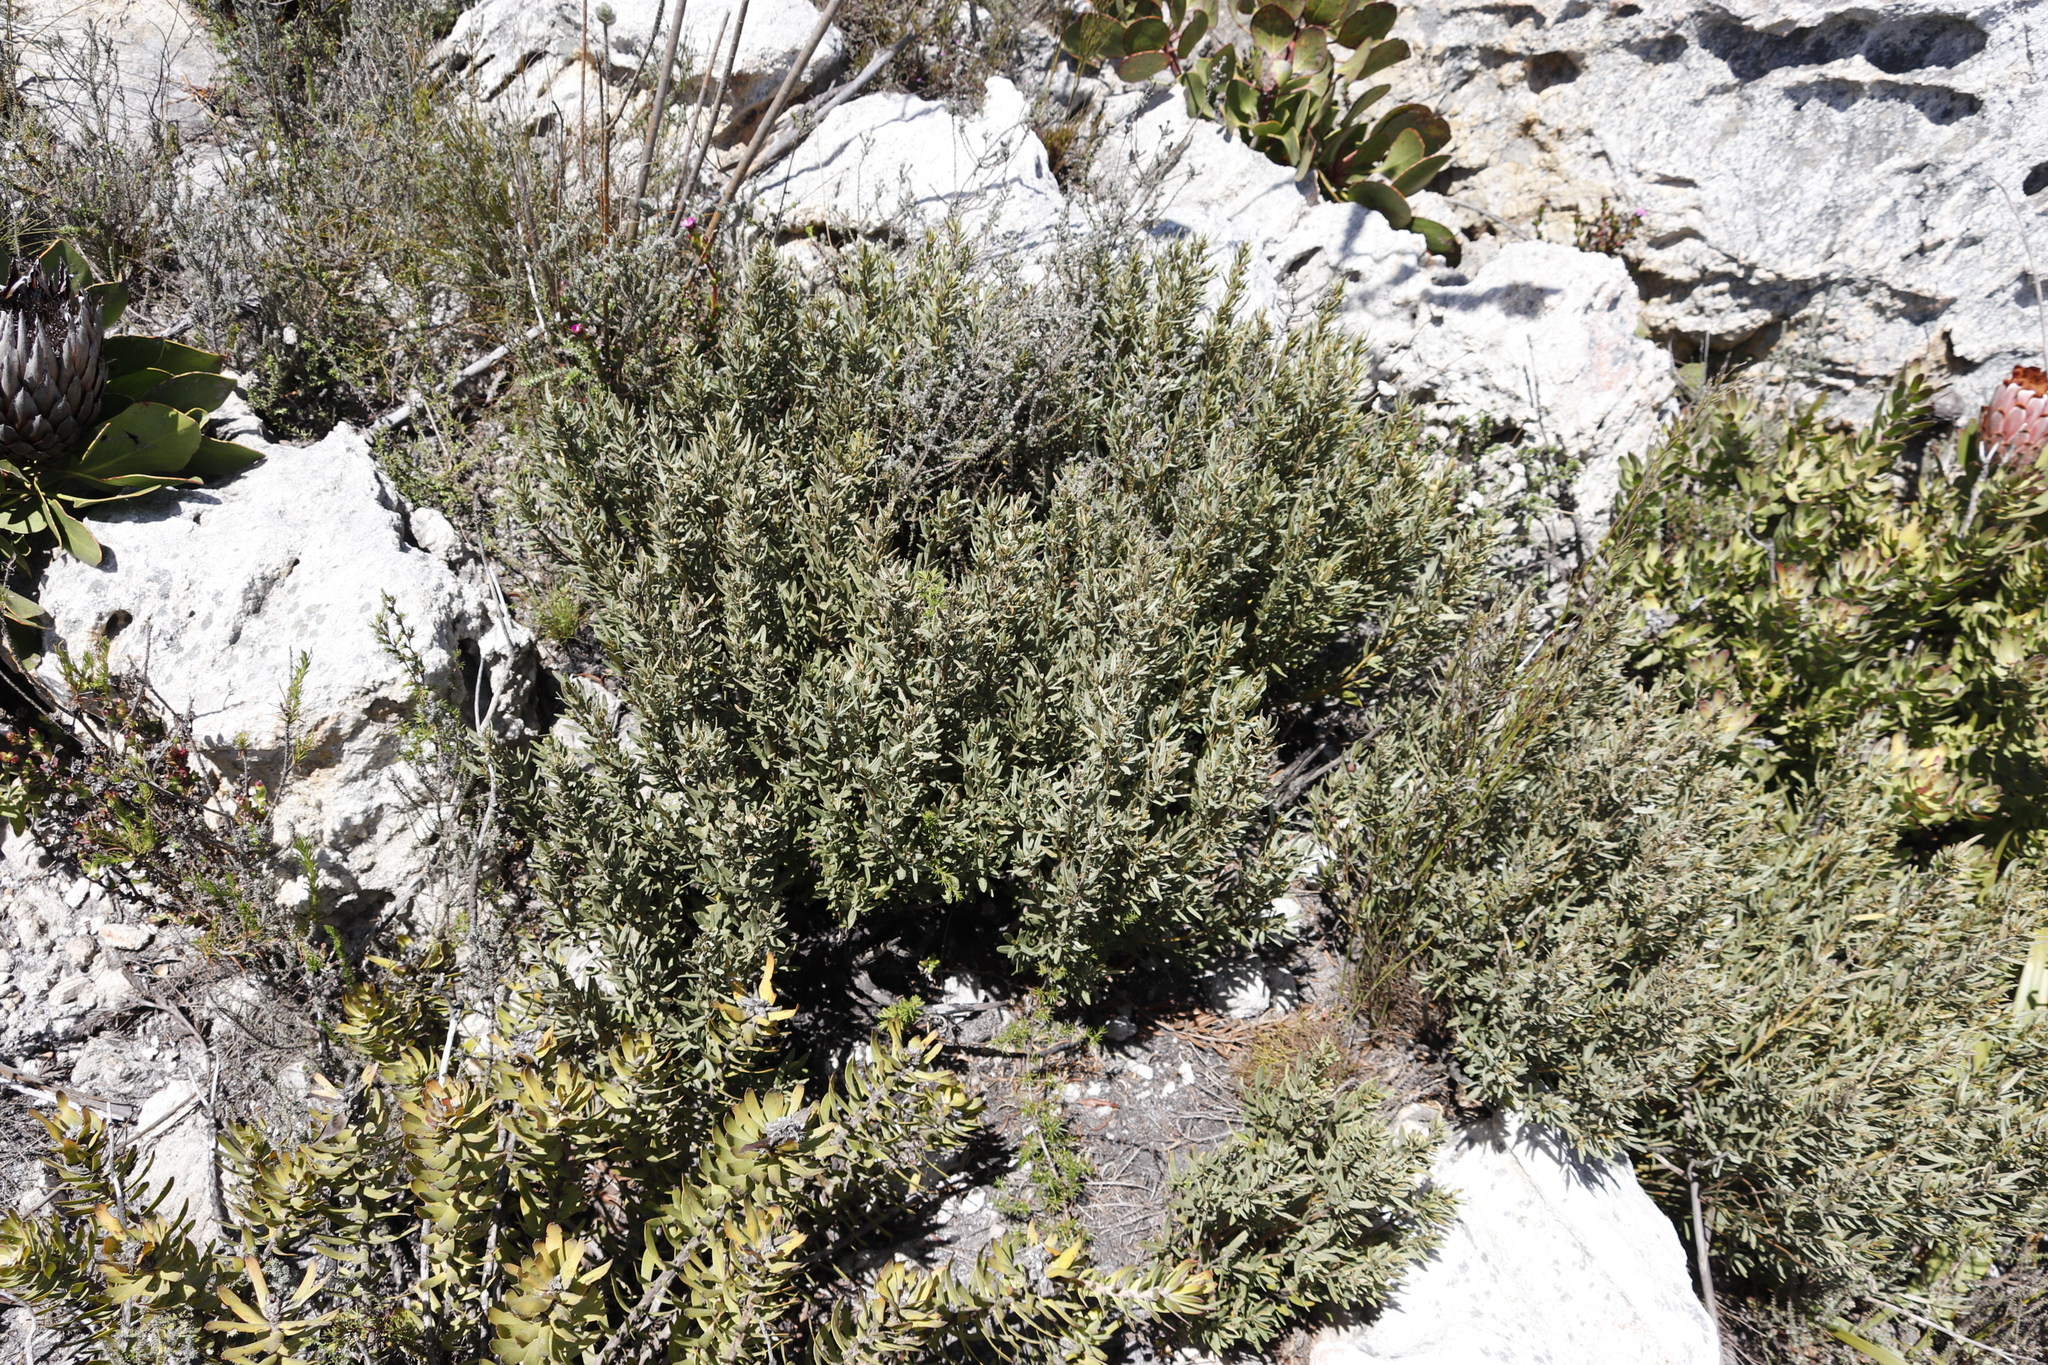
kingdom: Plantae
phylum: Tracheophyta
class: Magnoliopsida
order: Cornales
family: Grubbiaceae
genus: Grubbia
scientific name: Grubbia tomentosa
